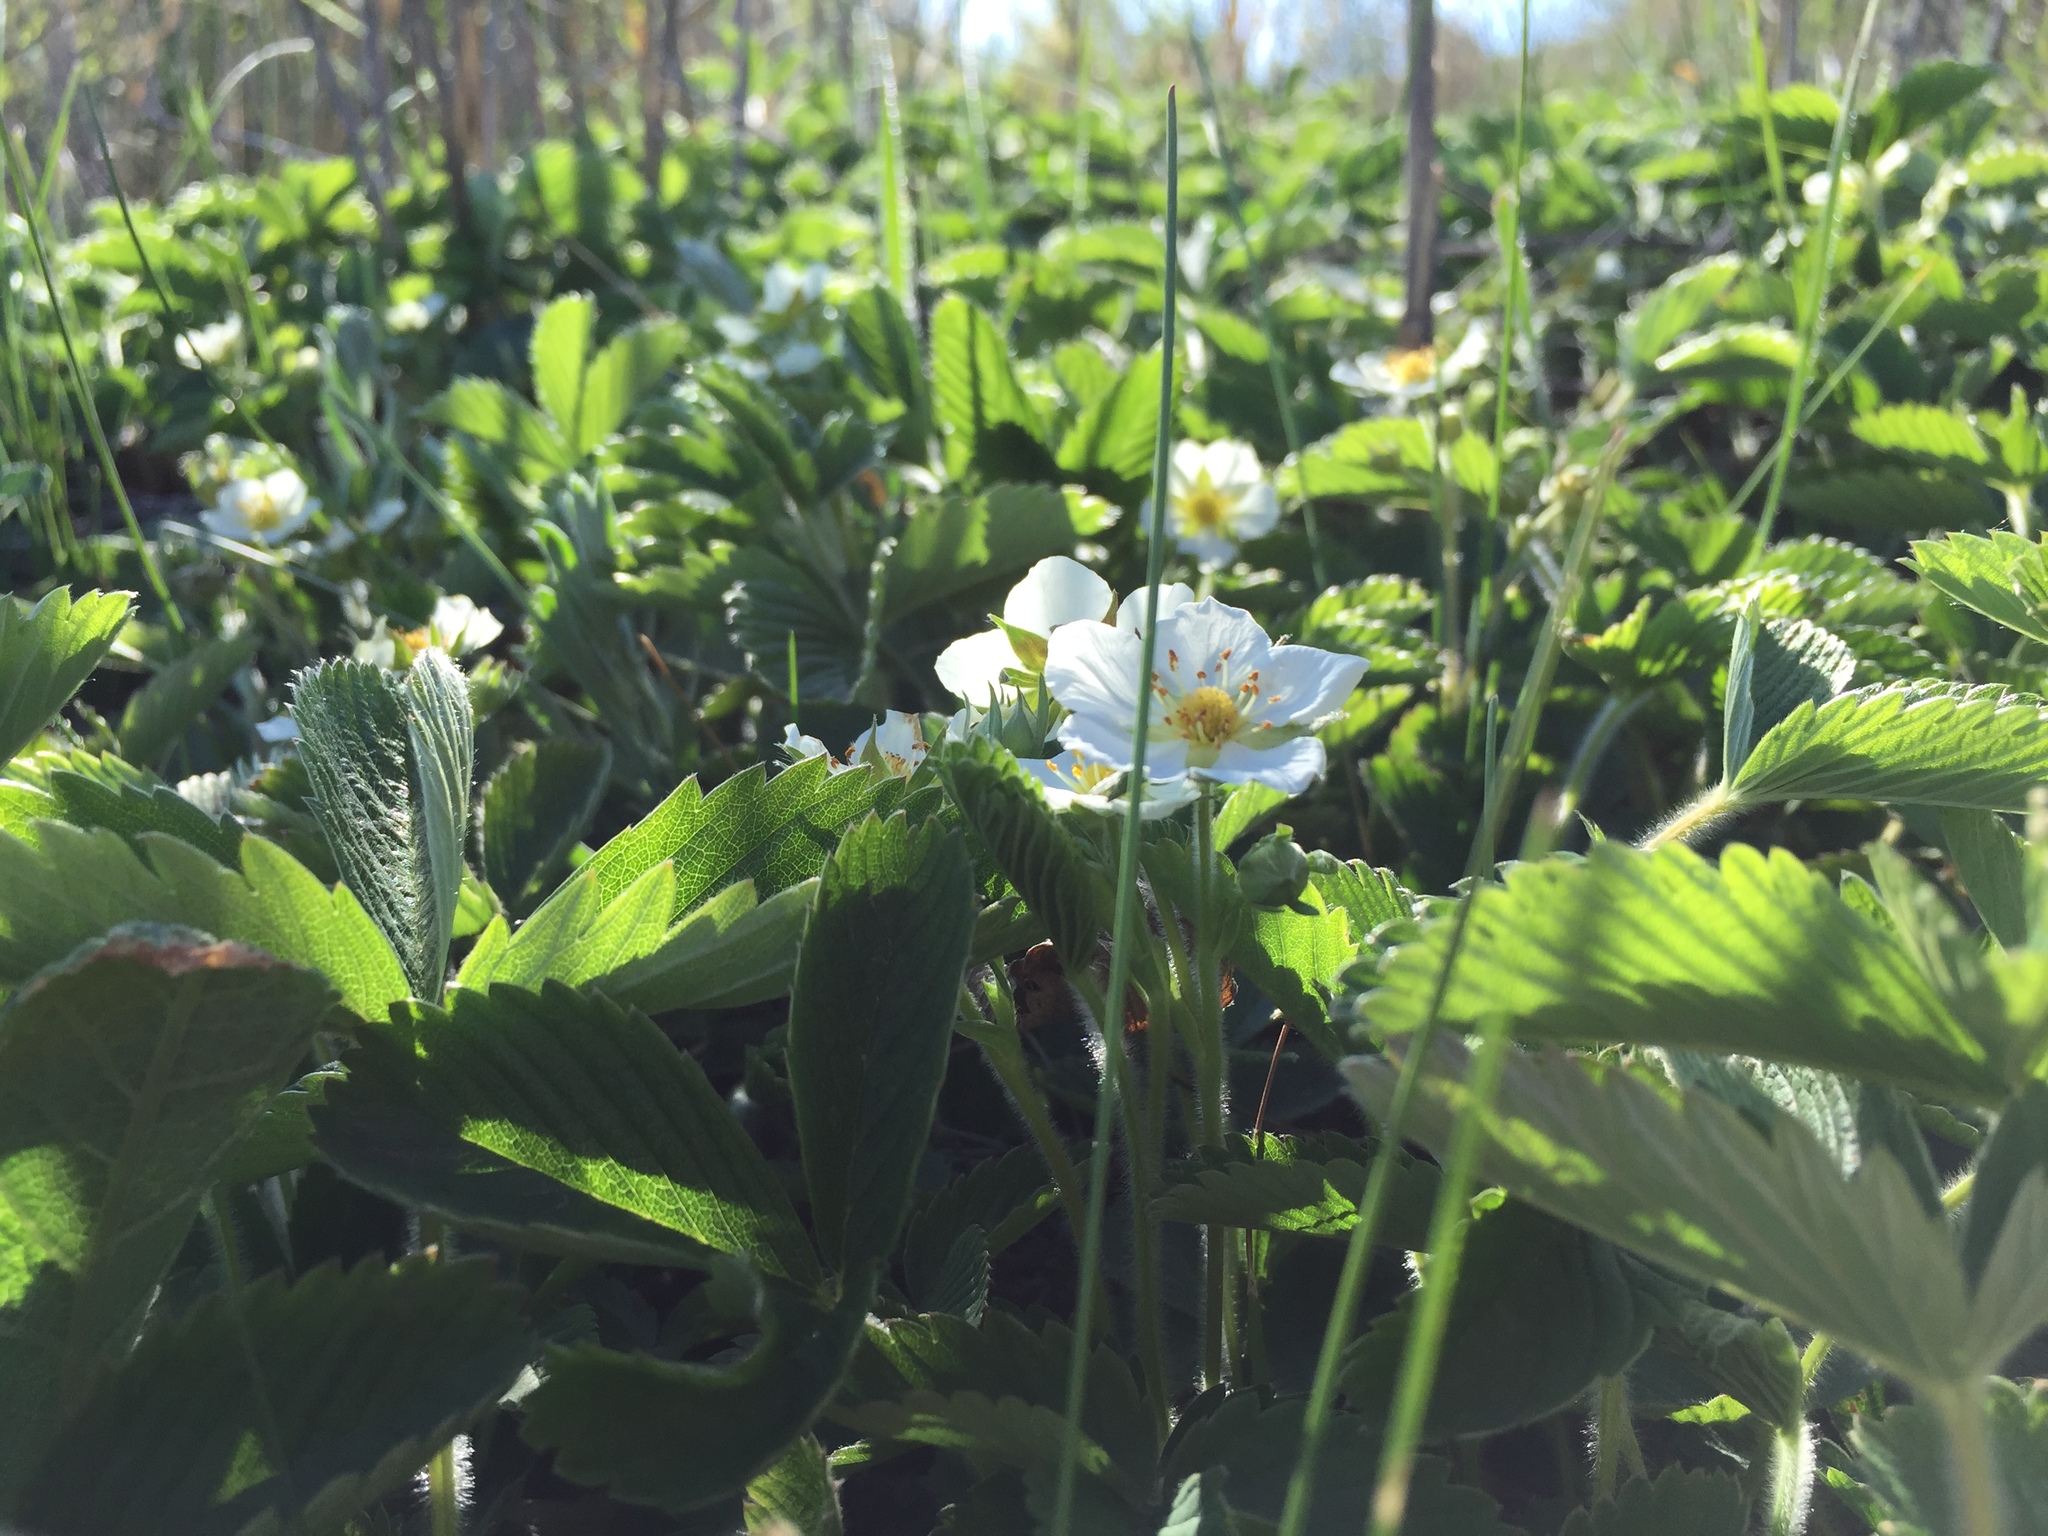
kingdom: Plantae
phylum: Tracheophyta
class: Magnoliopsida
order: Rosales
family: Rosaceae
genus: Fragaria
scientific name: Fragaria vesca
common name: Wild strawberry
